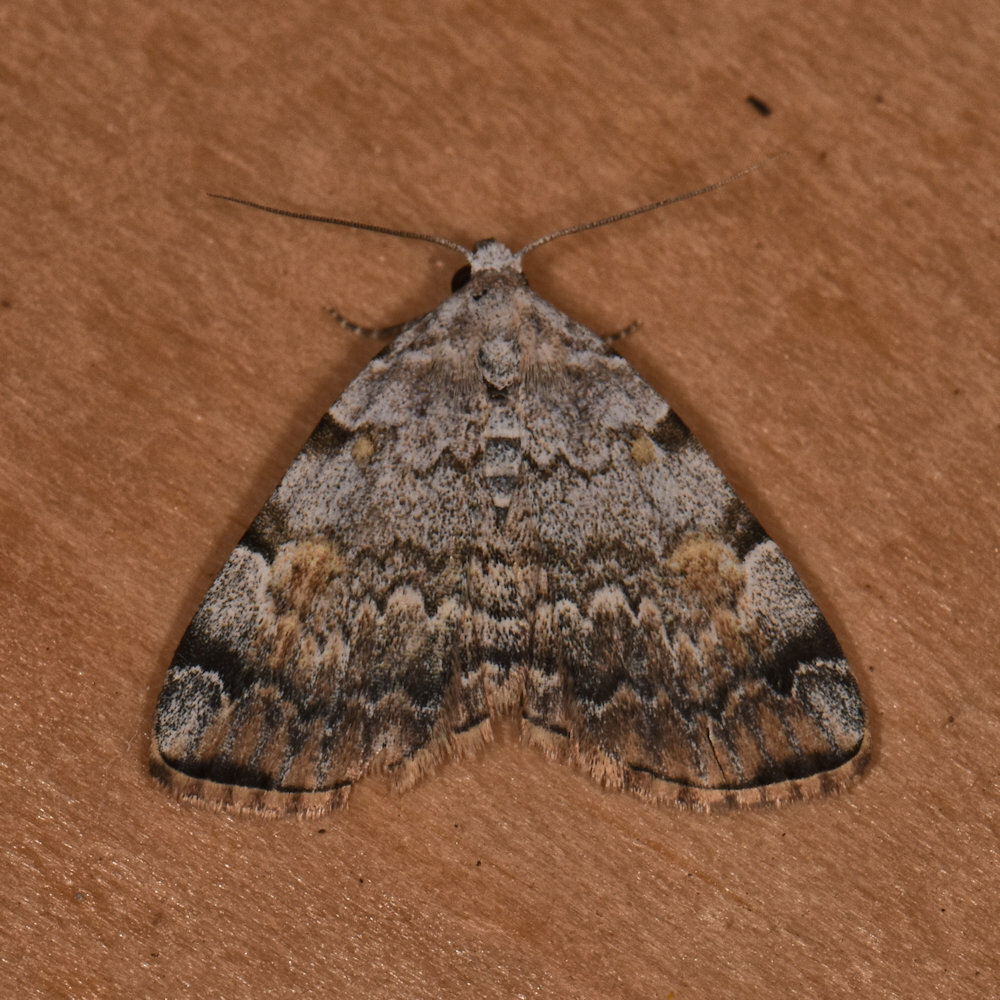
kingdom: Animalia
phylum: Arthropoda
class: Insecta
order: Lepidoptera
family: Erebidae
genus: Idia
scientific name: Idia americalis
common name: American idia moth
